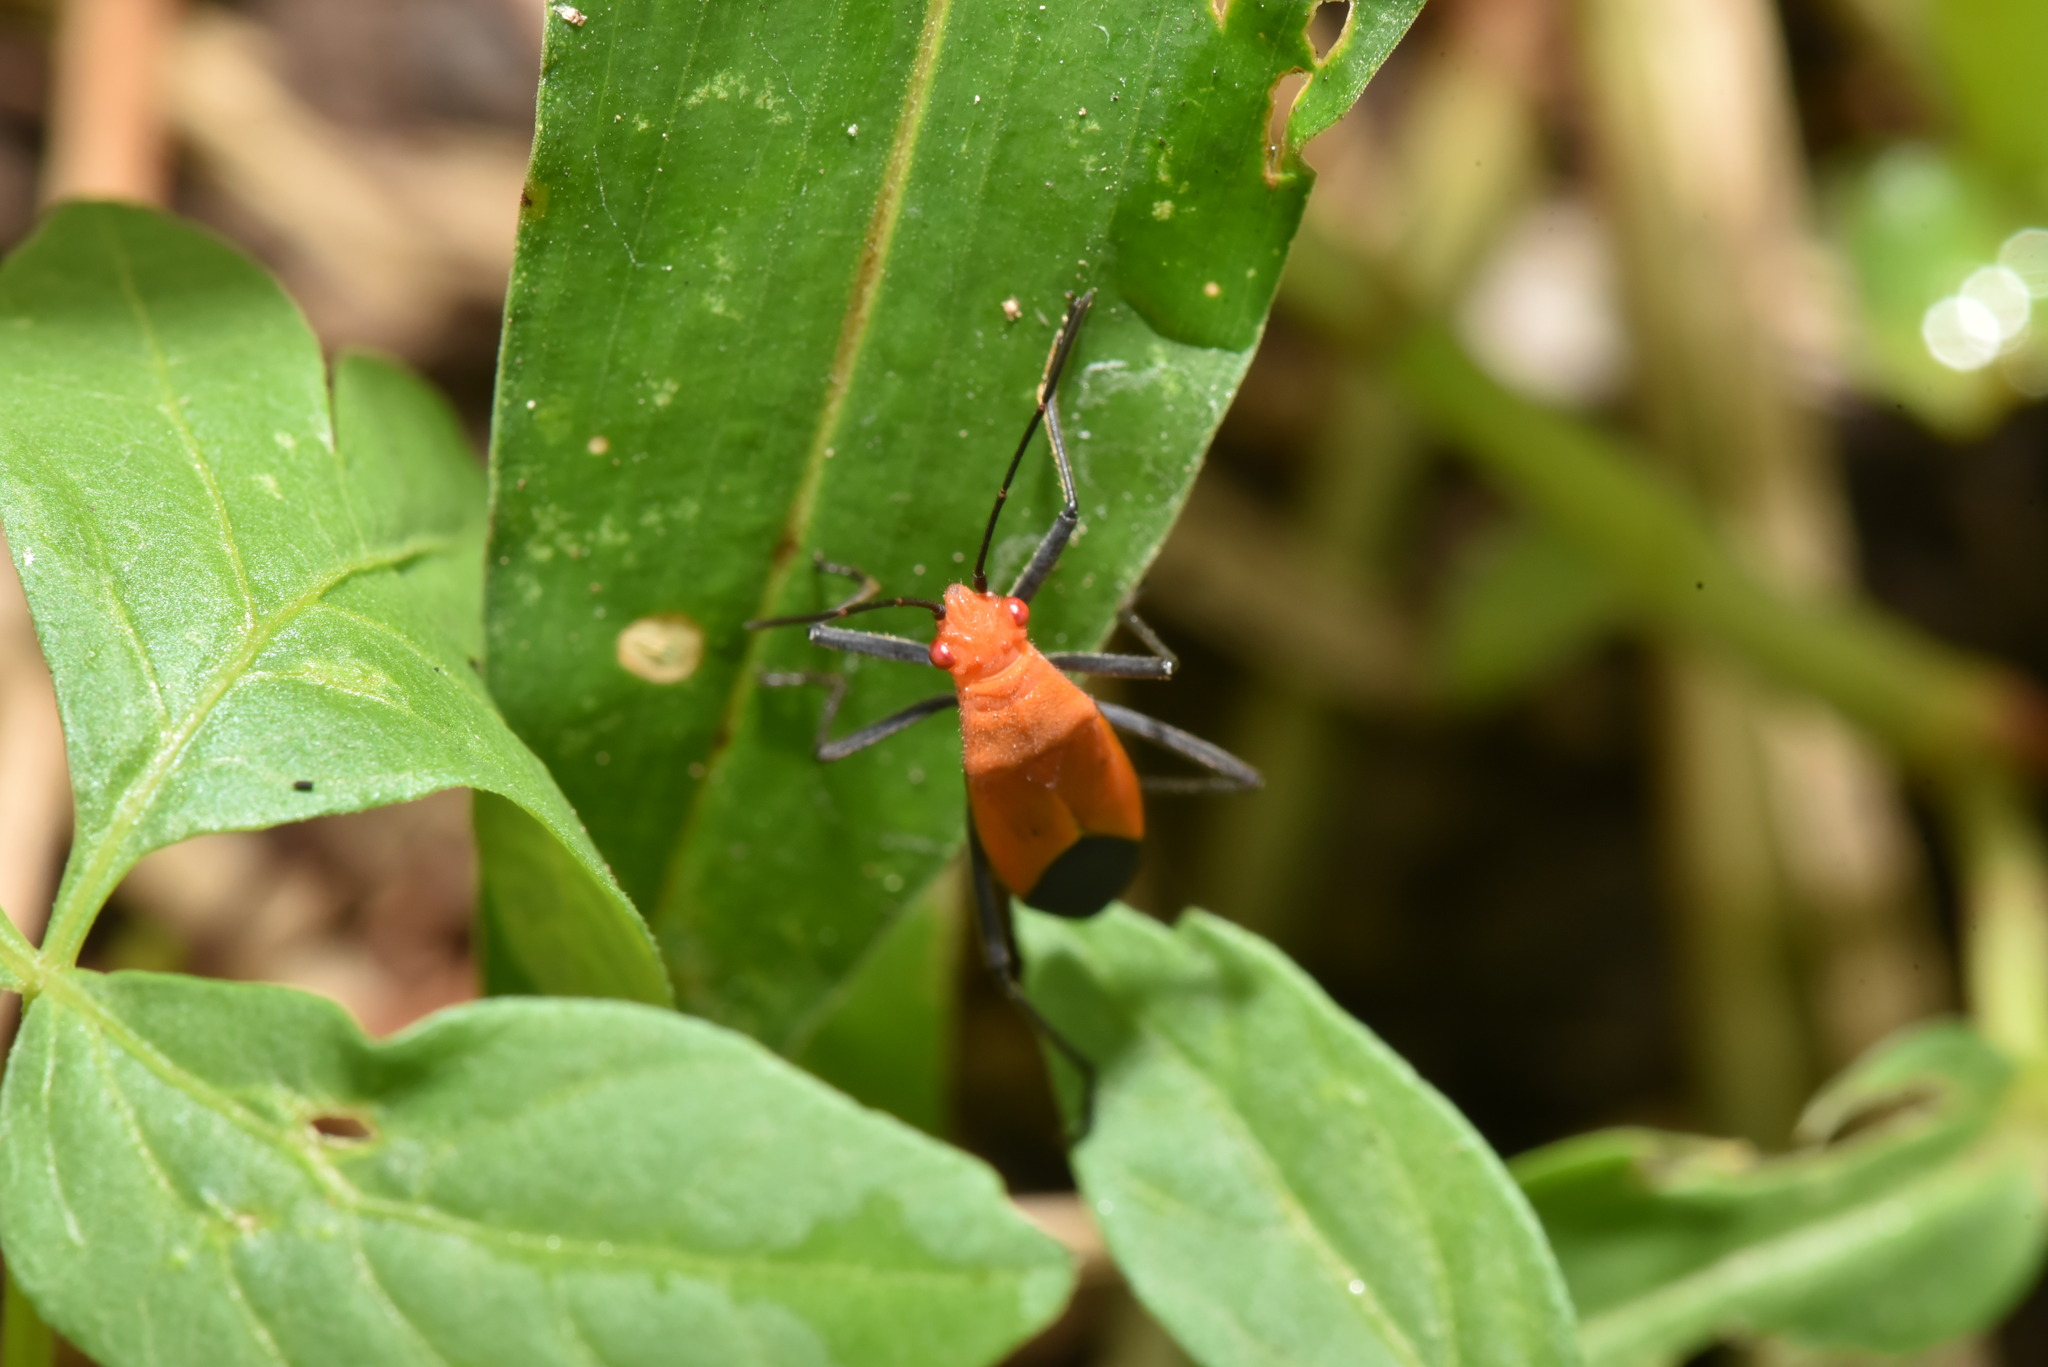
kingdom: Animalia
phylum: Arthropoda
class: Insecta
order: Hemiptera
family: Rhopalidae
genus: Leptocoris
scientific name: Leptocoris augur
